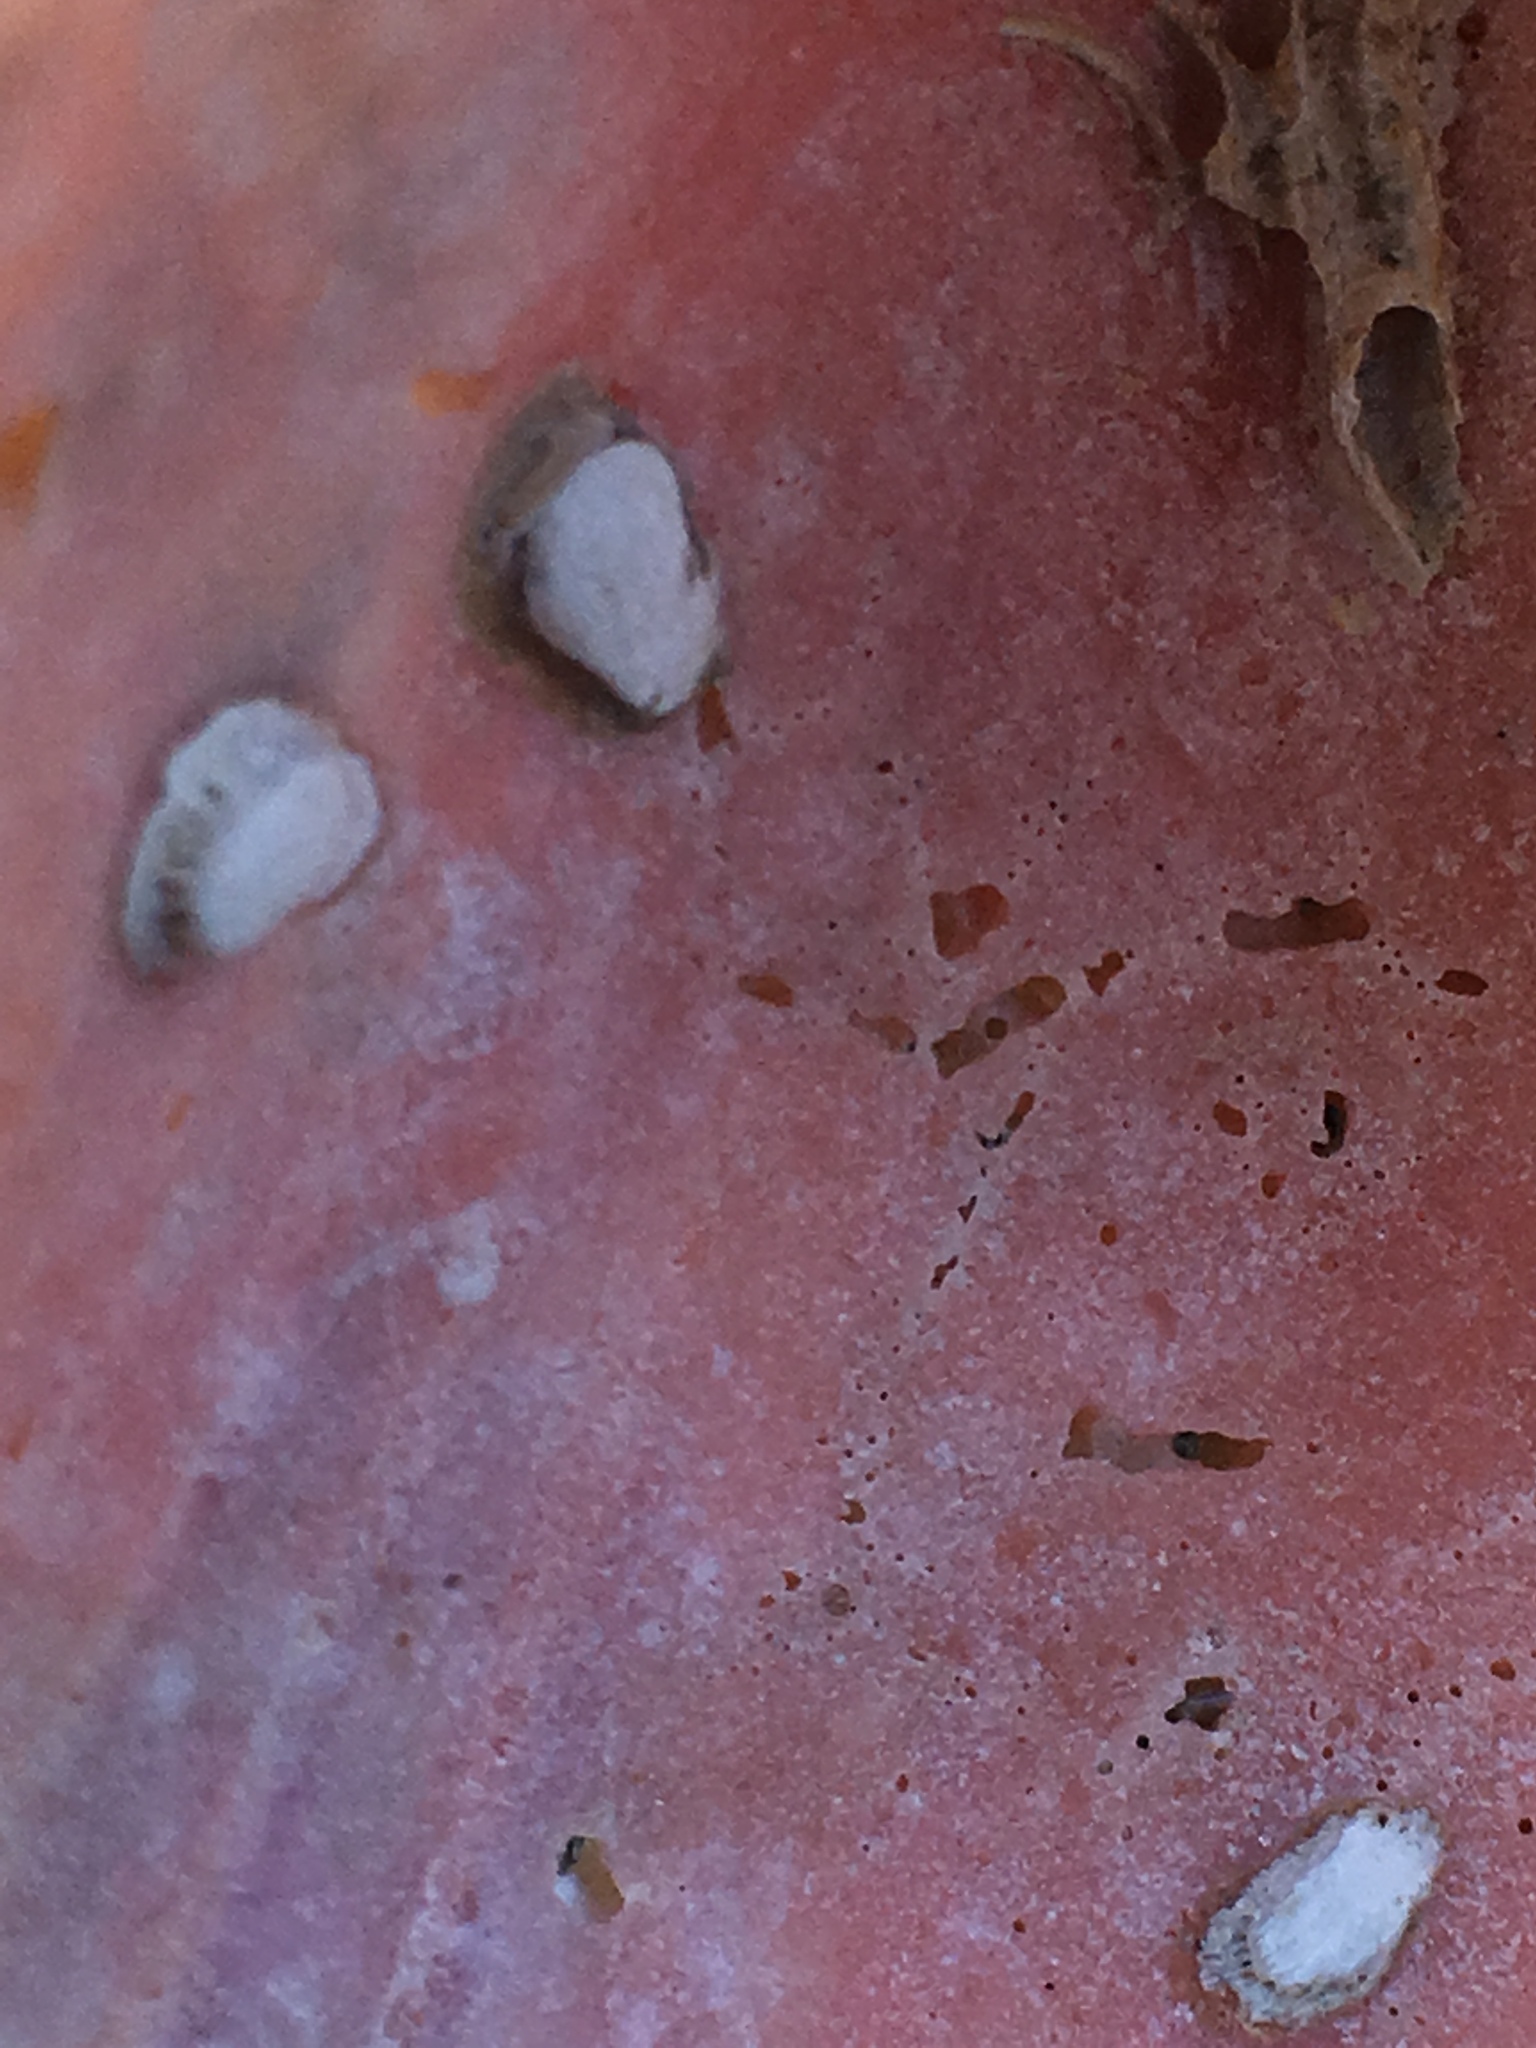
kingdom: Animalia
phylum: Mollusca
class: Bivalvia
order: Gastrochaenida
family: Gastrochaenidae
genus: Rocellaria
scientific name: Rocellaria stimpsonii
